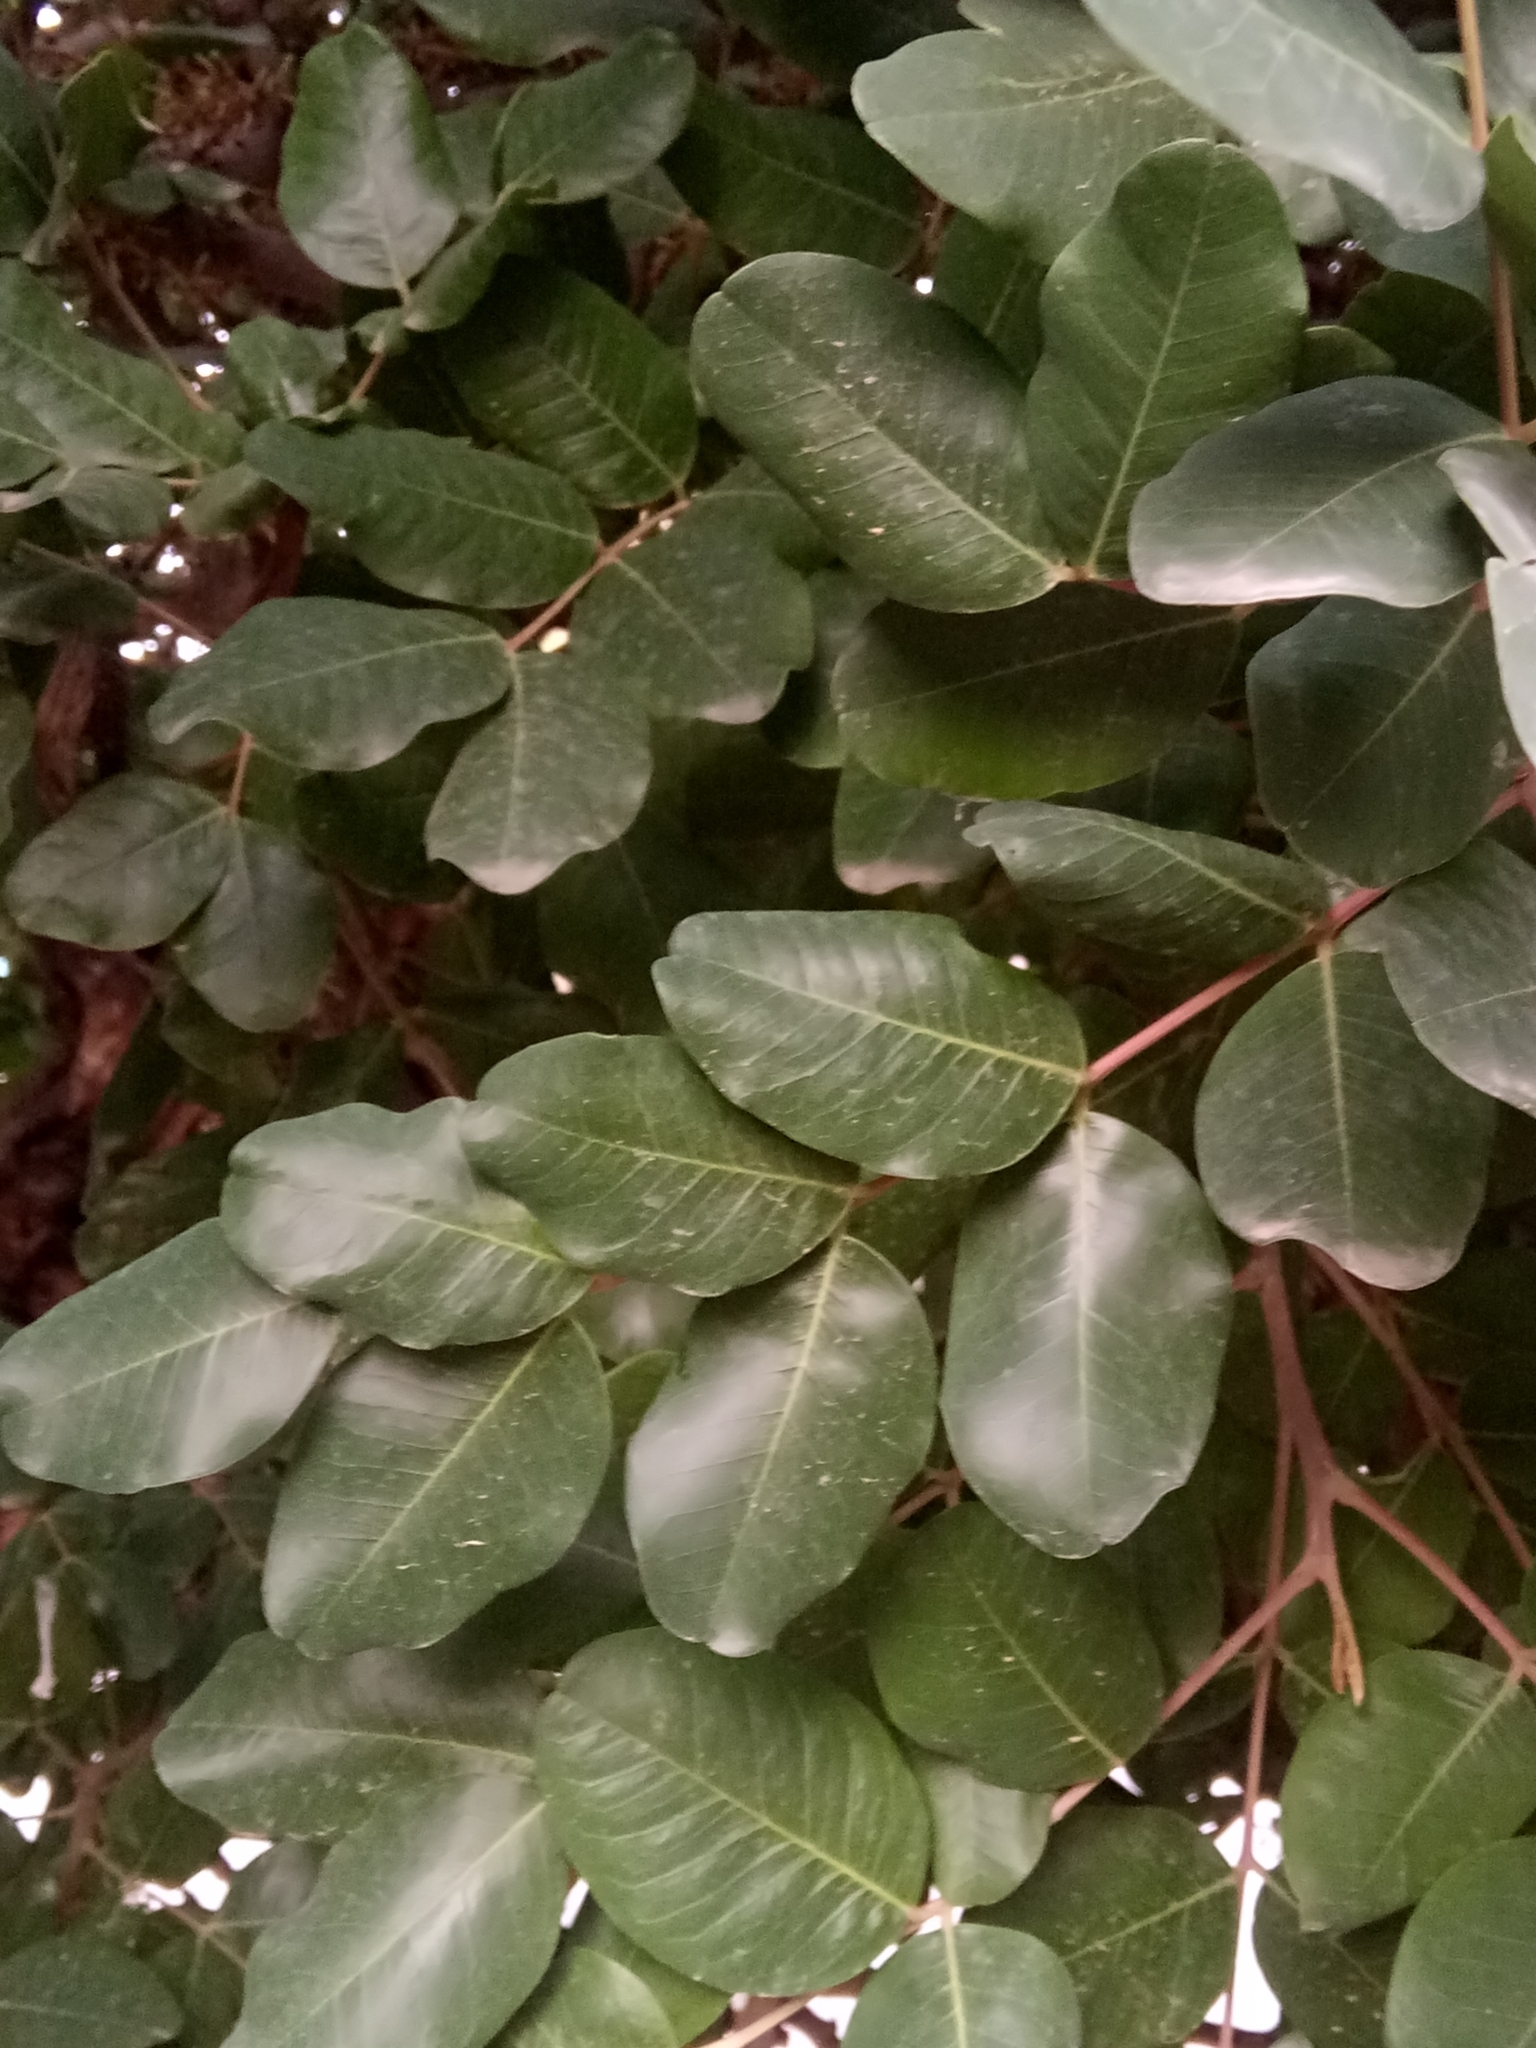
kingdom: Plantae
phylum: Tracheophyta
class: Magnoliopsida
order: Fabales
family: Fabaceae
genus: Ceratonia
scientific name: Ceratonia siliqua
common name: Carob
